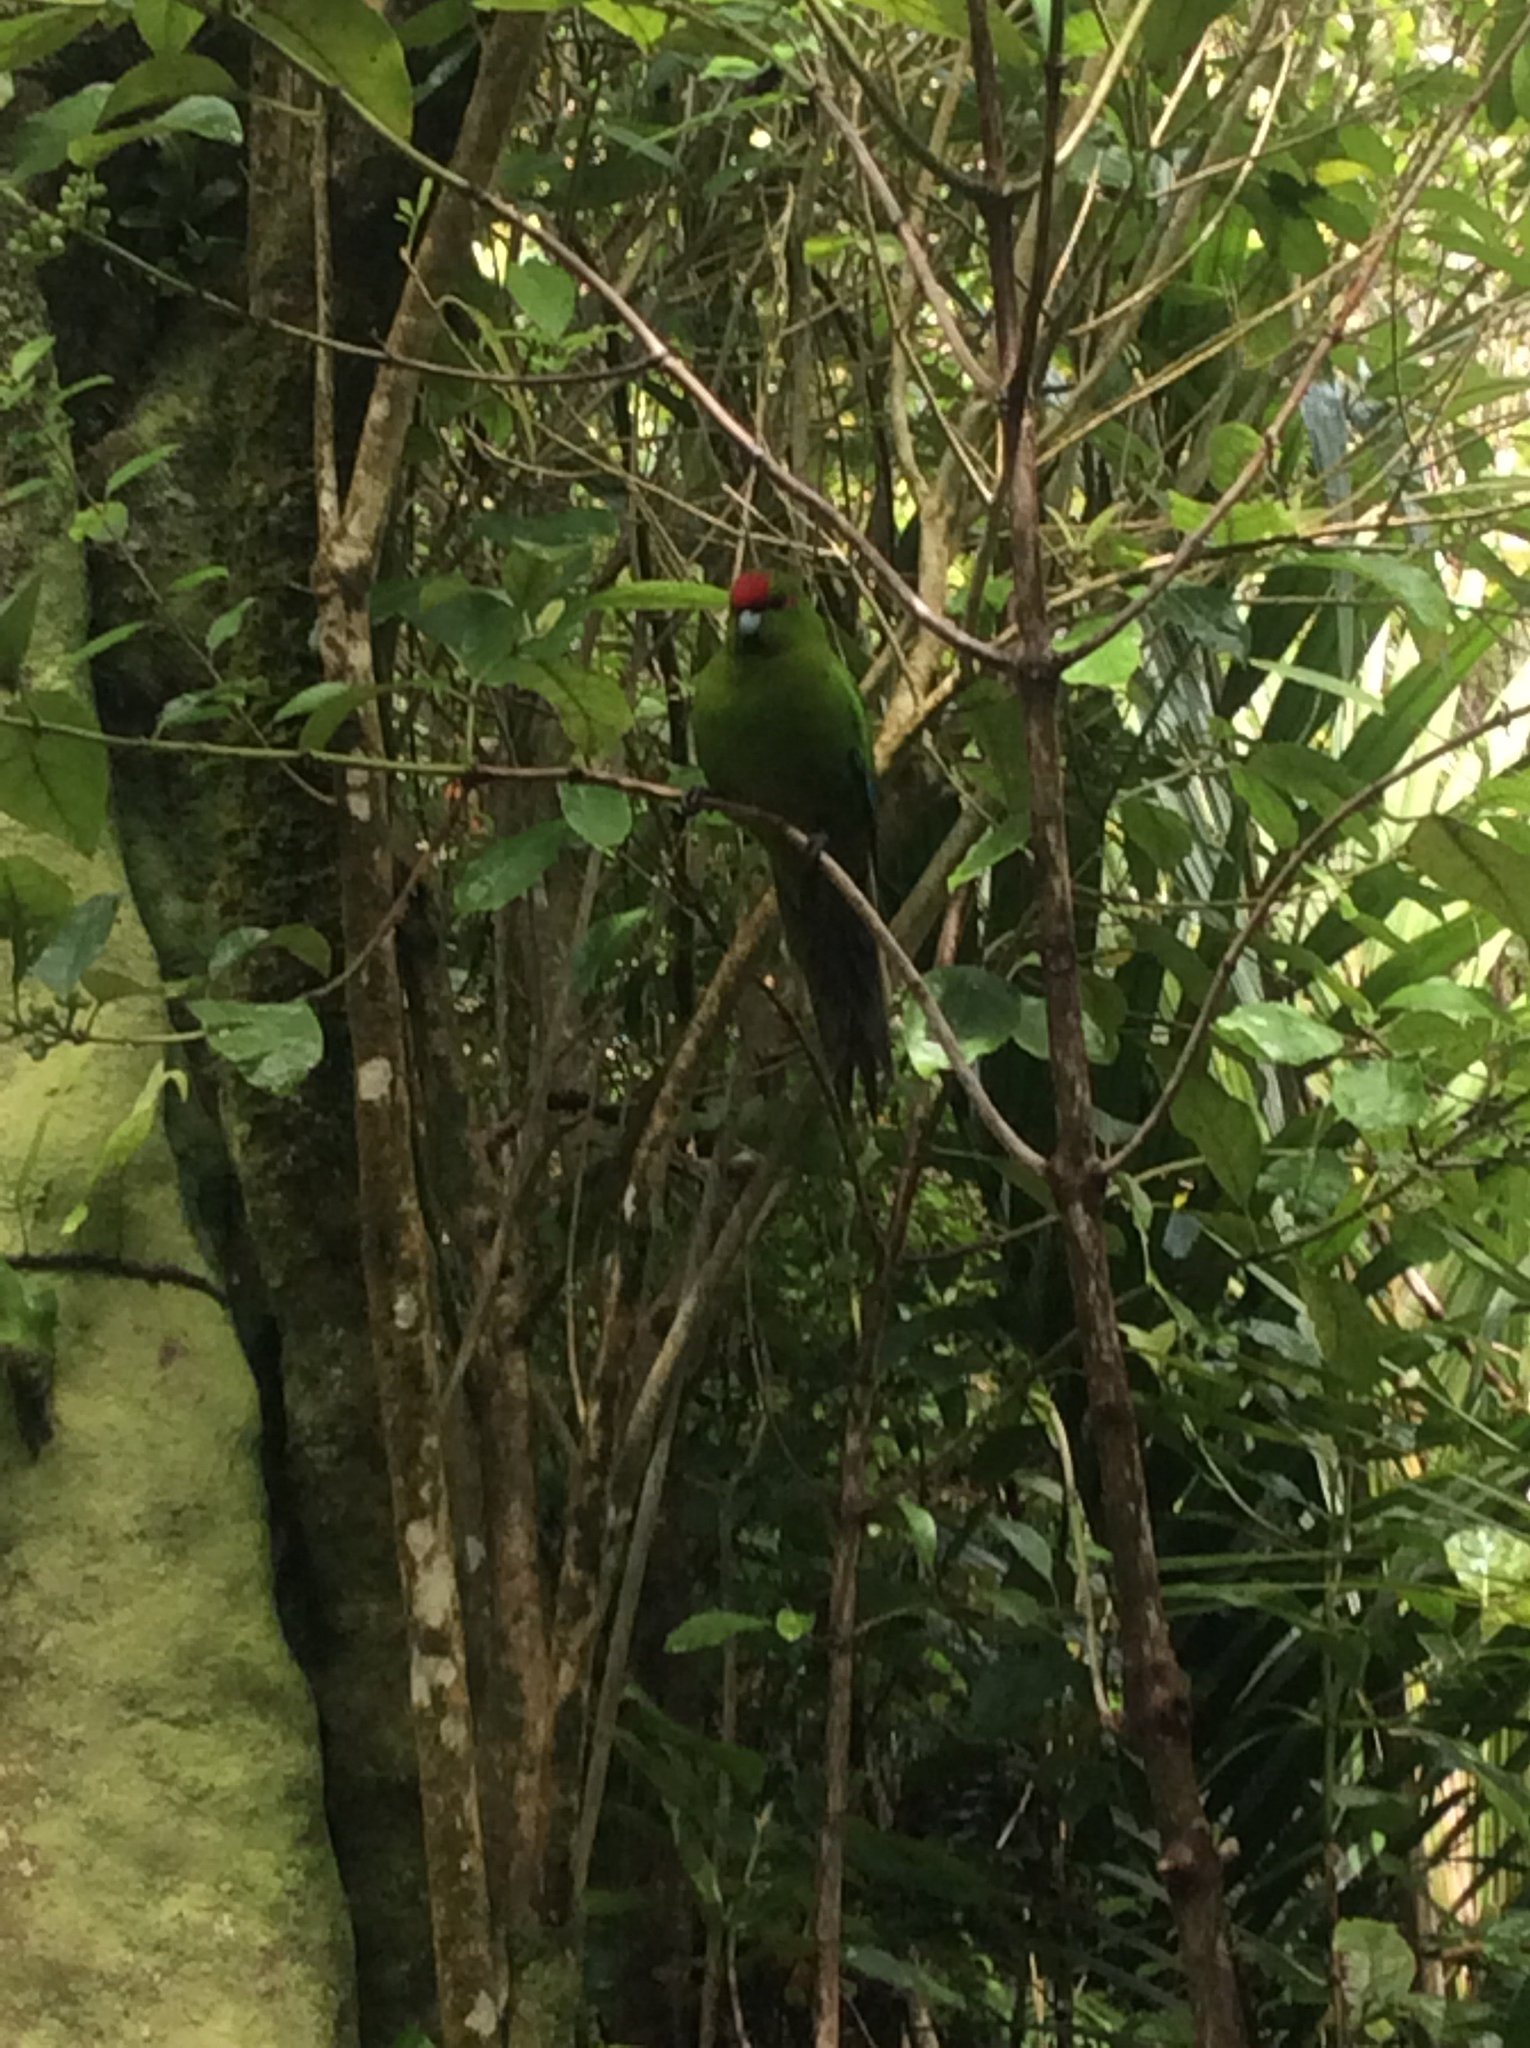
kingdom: Animalia
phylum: Chordata
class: Aves
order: Psittaciformes
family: Psittacidae
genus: Cyanoramphus
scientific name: Cyanoramphus novaezelandiae
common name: Red-fronted parakeet
